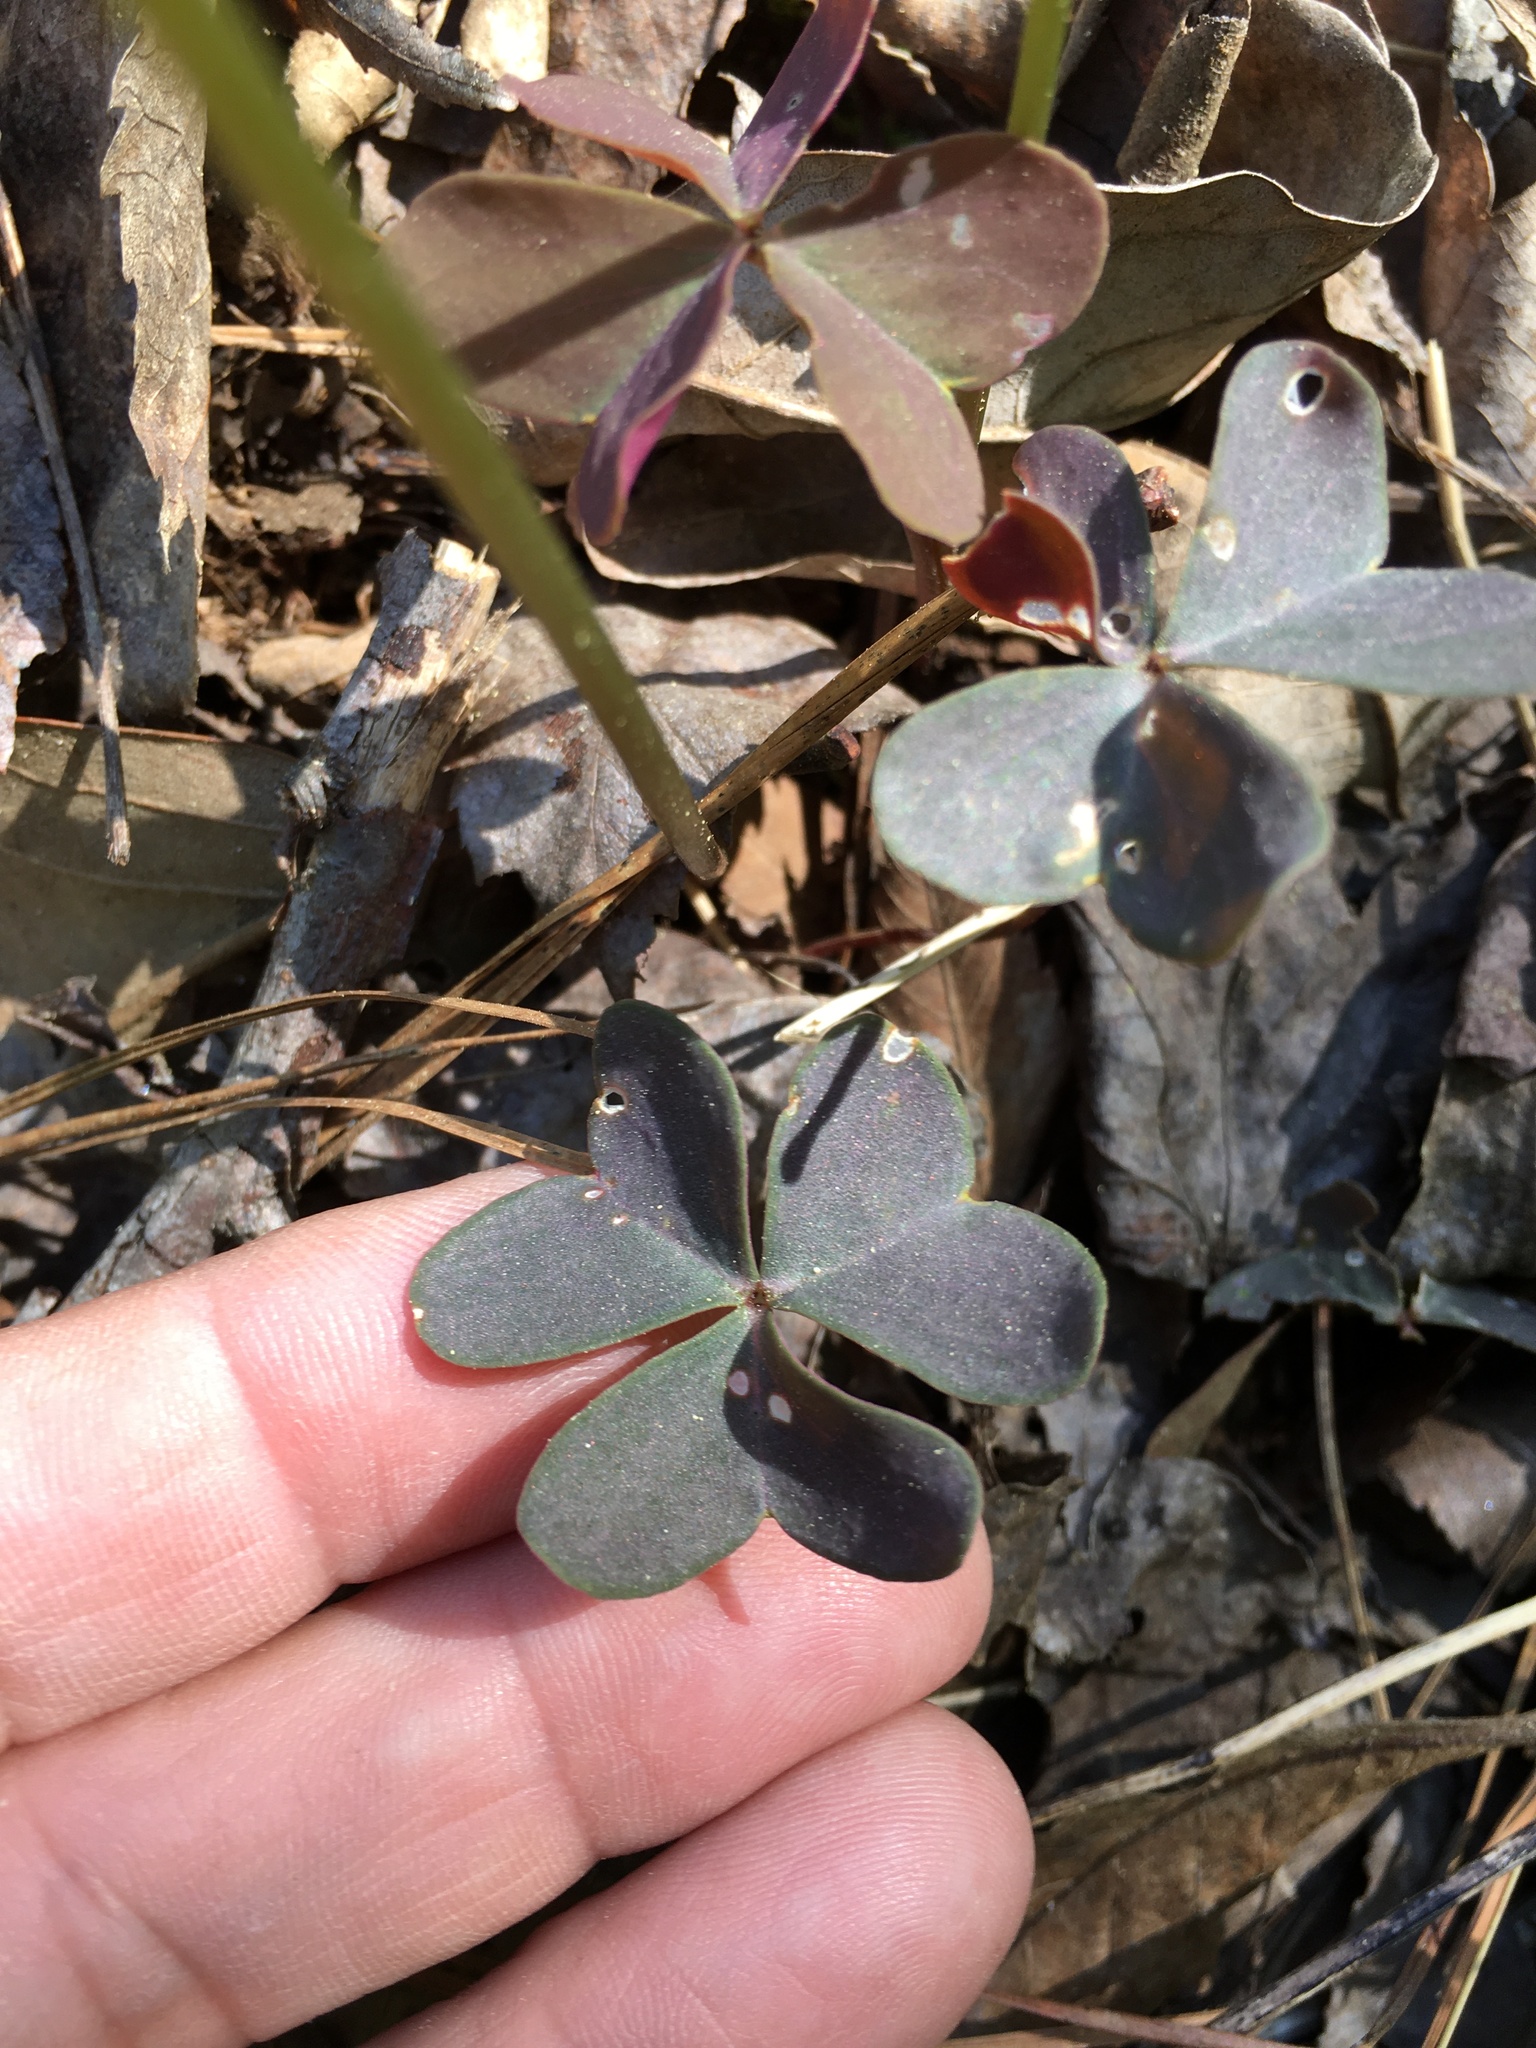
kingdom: Plantae
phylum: Tracheophyta
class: Magnoliopsida
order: Oxalidales
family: Oxalidaceae
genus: Oxalis
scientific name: Oxalis violacea
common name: Violet wood-sorrel
